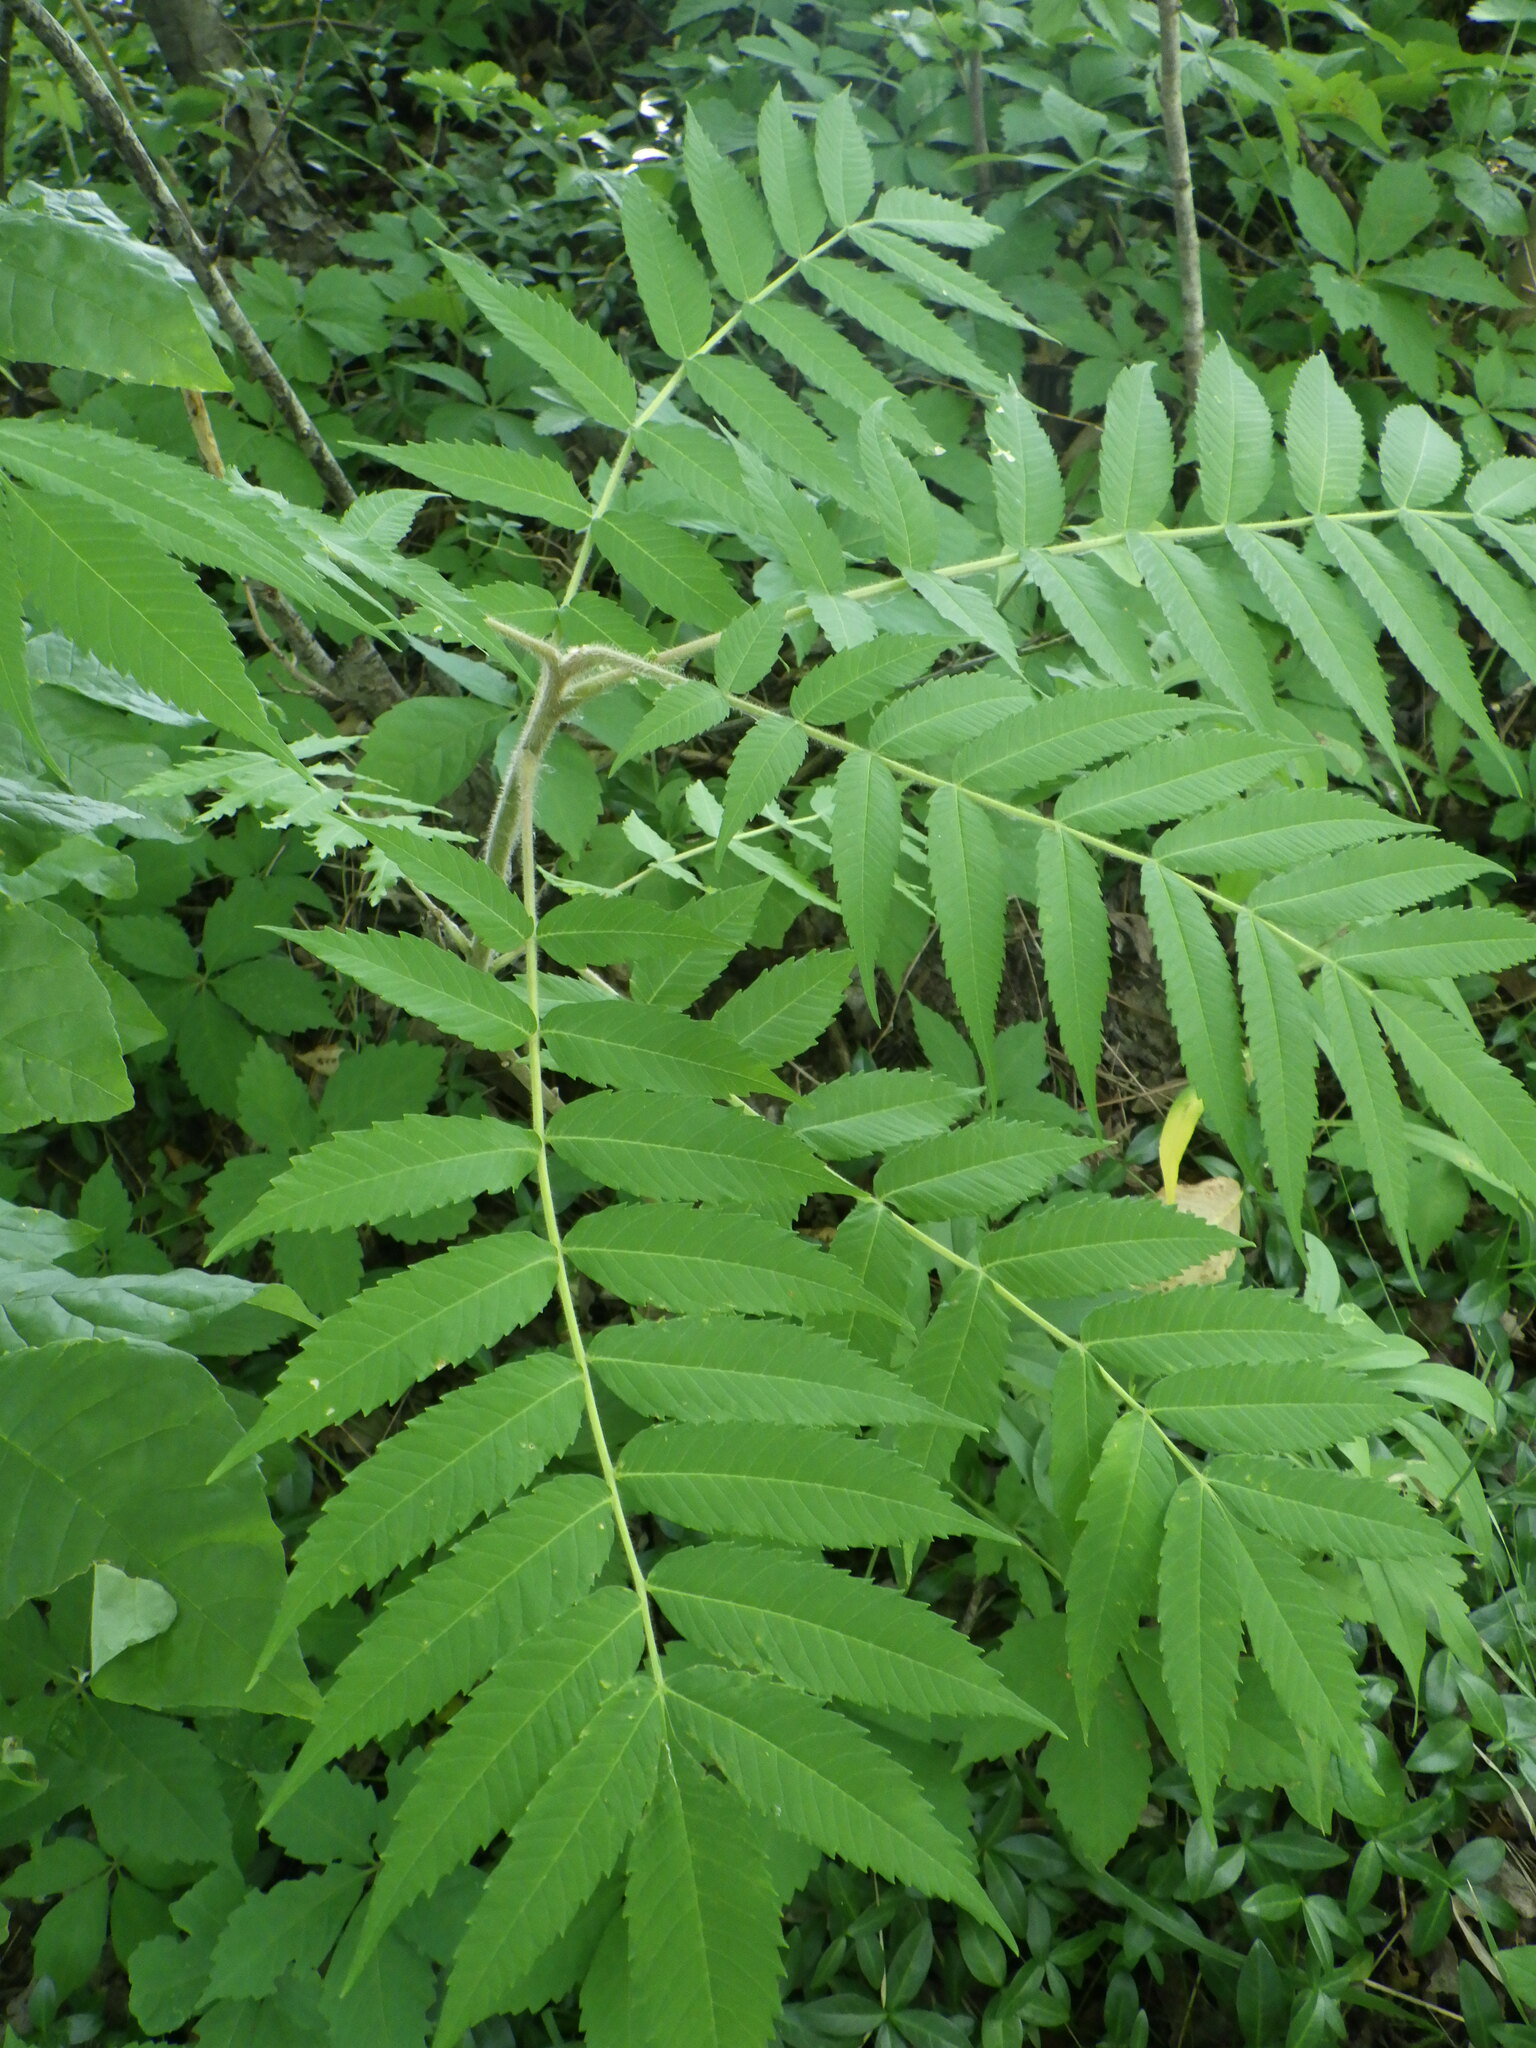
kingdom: Plantae
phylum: Tracheophyta
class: Magnoliopsida
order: Sapindales
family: Anacardiaceae
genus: Rhus
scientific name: Rhus typhina
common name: Staghorn sumac
